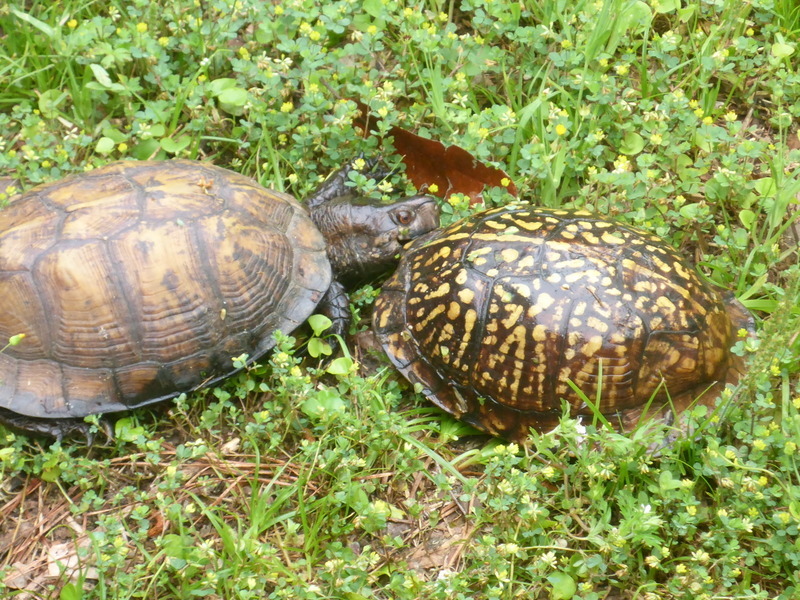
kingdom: Animalia
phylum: Chordata
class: Testudines
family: Emydidae
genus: Terrapene
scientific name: Terrapene carolina
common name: Common box turtle
